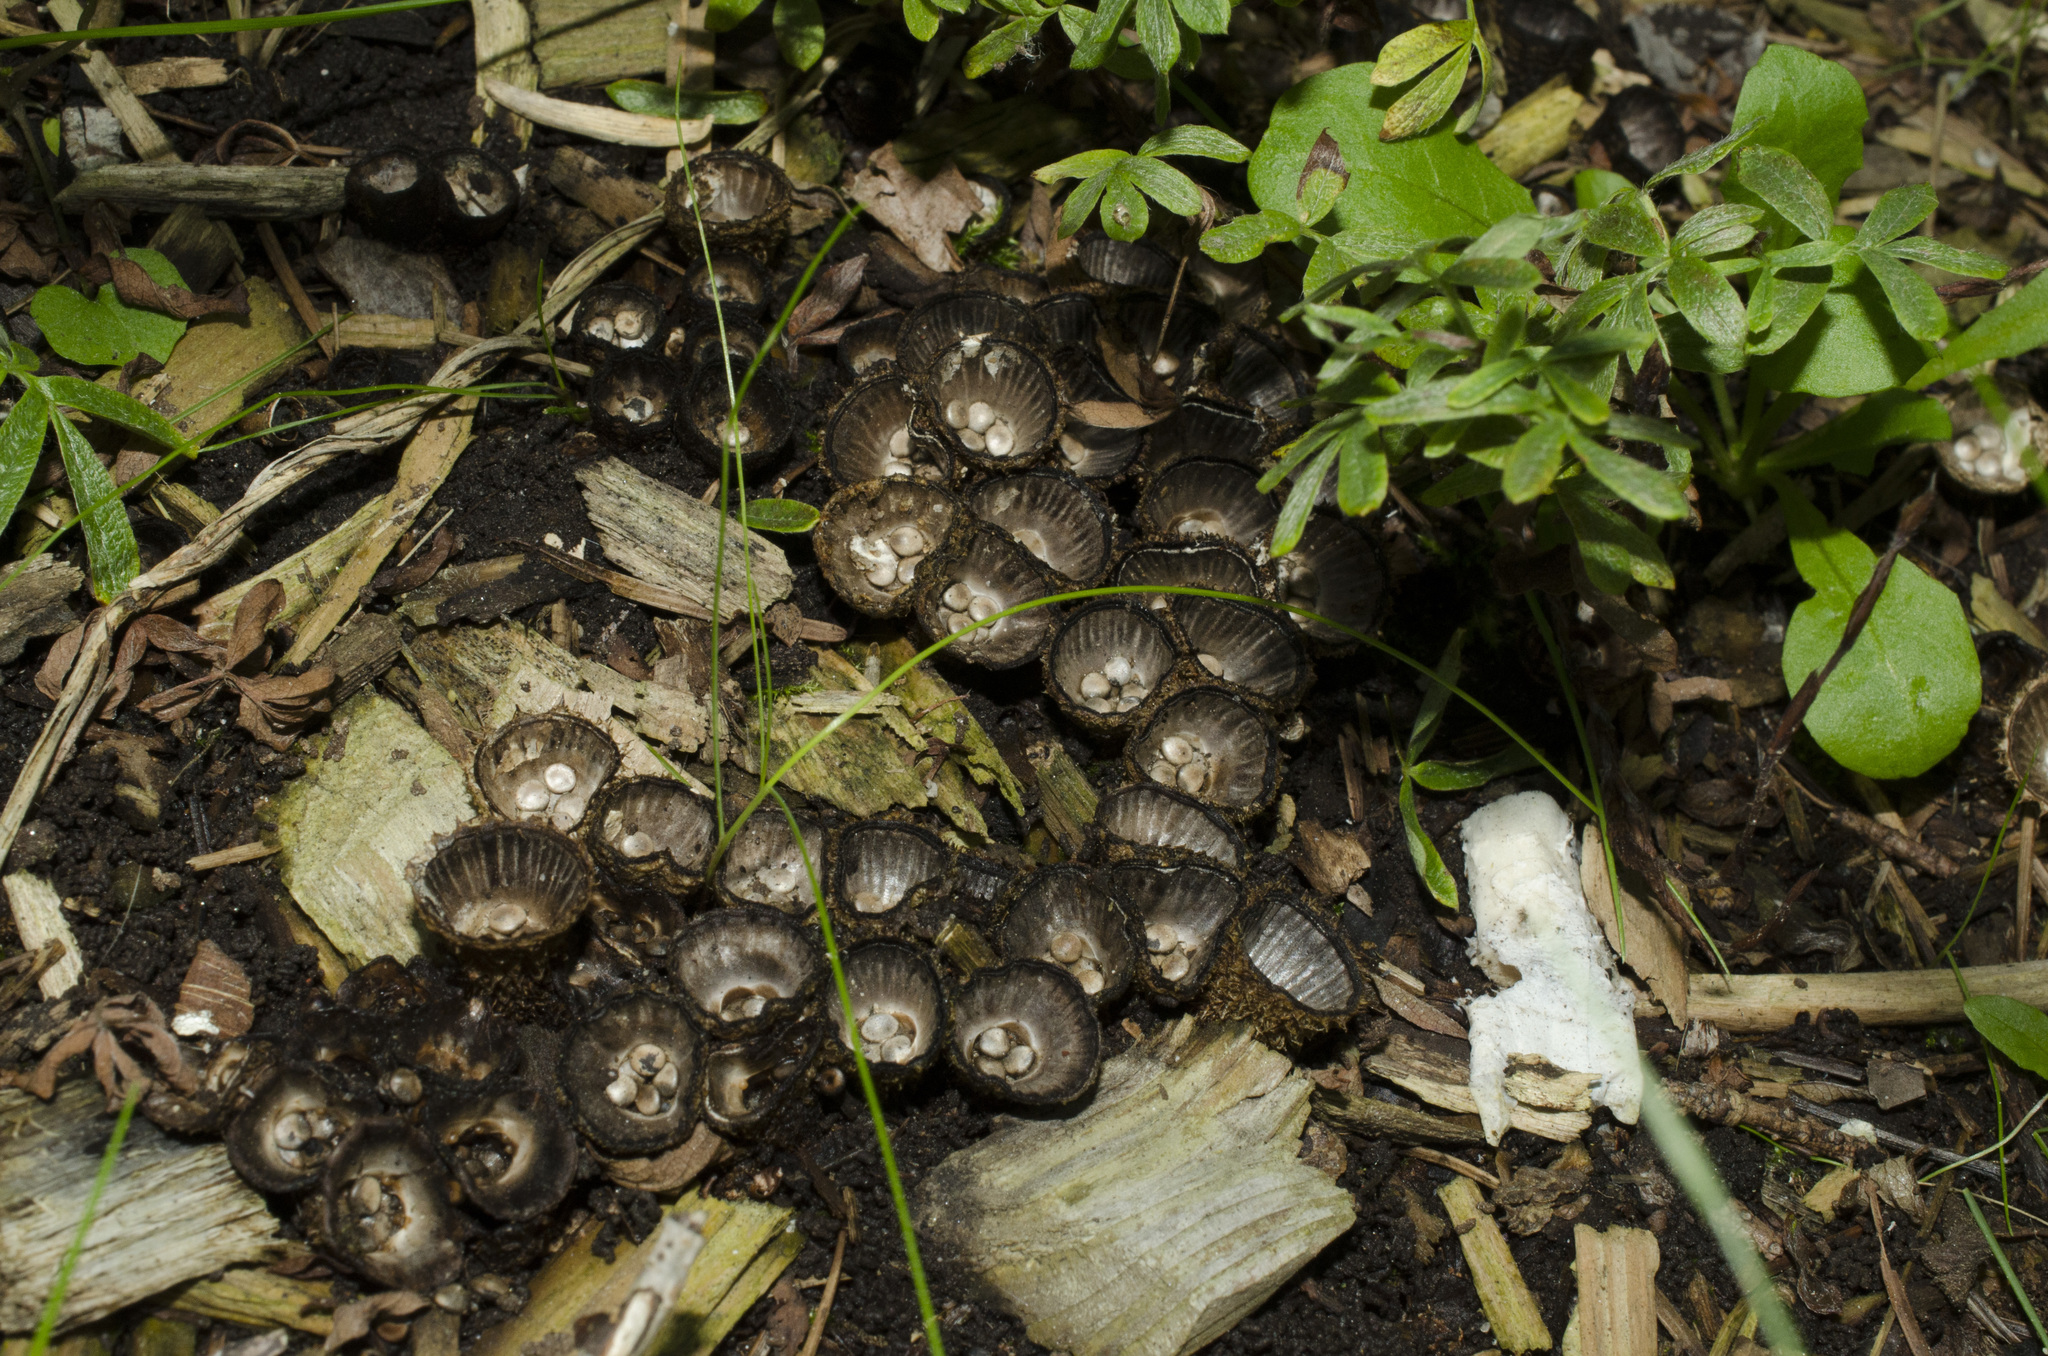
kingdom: Fungi
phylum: Basidiomycota
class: Agaricomycetes
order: Agaricales
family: Agaricaceae
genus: Cyathus
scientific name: Cyathus striatus
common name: Fluted bird's nest
